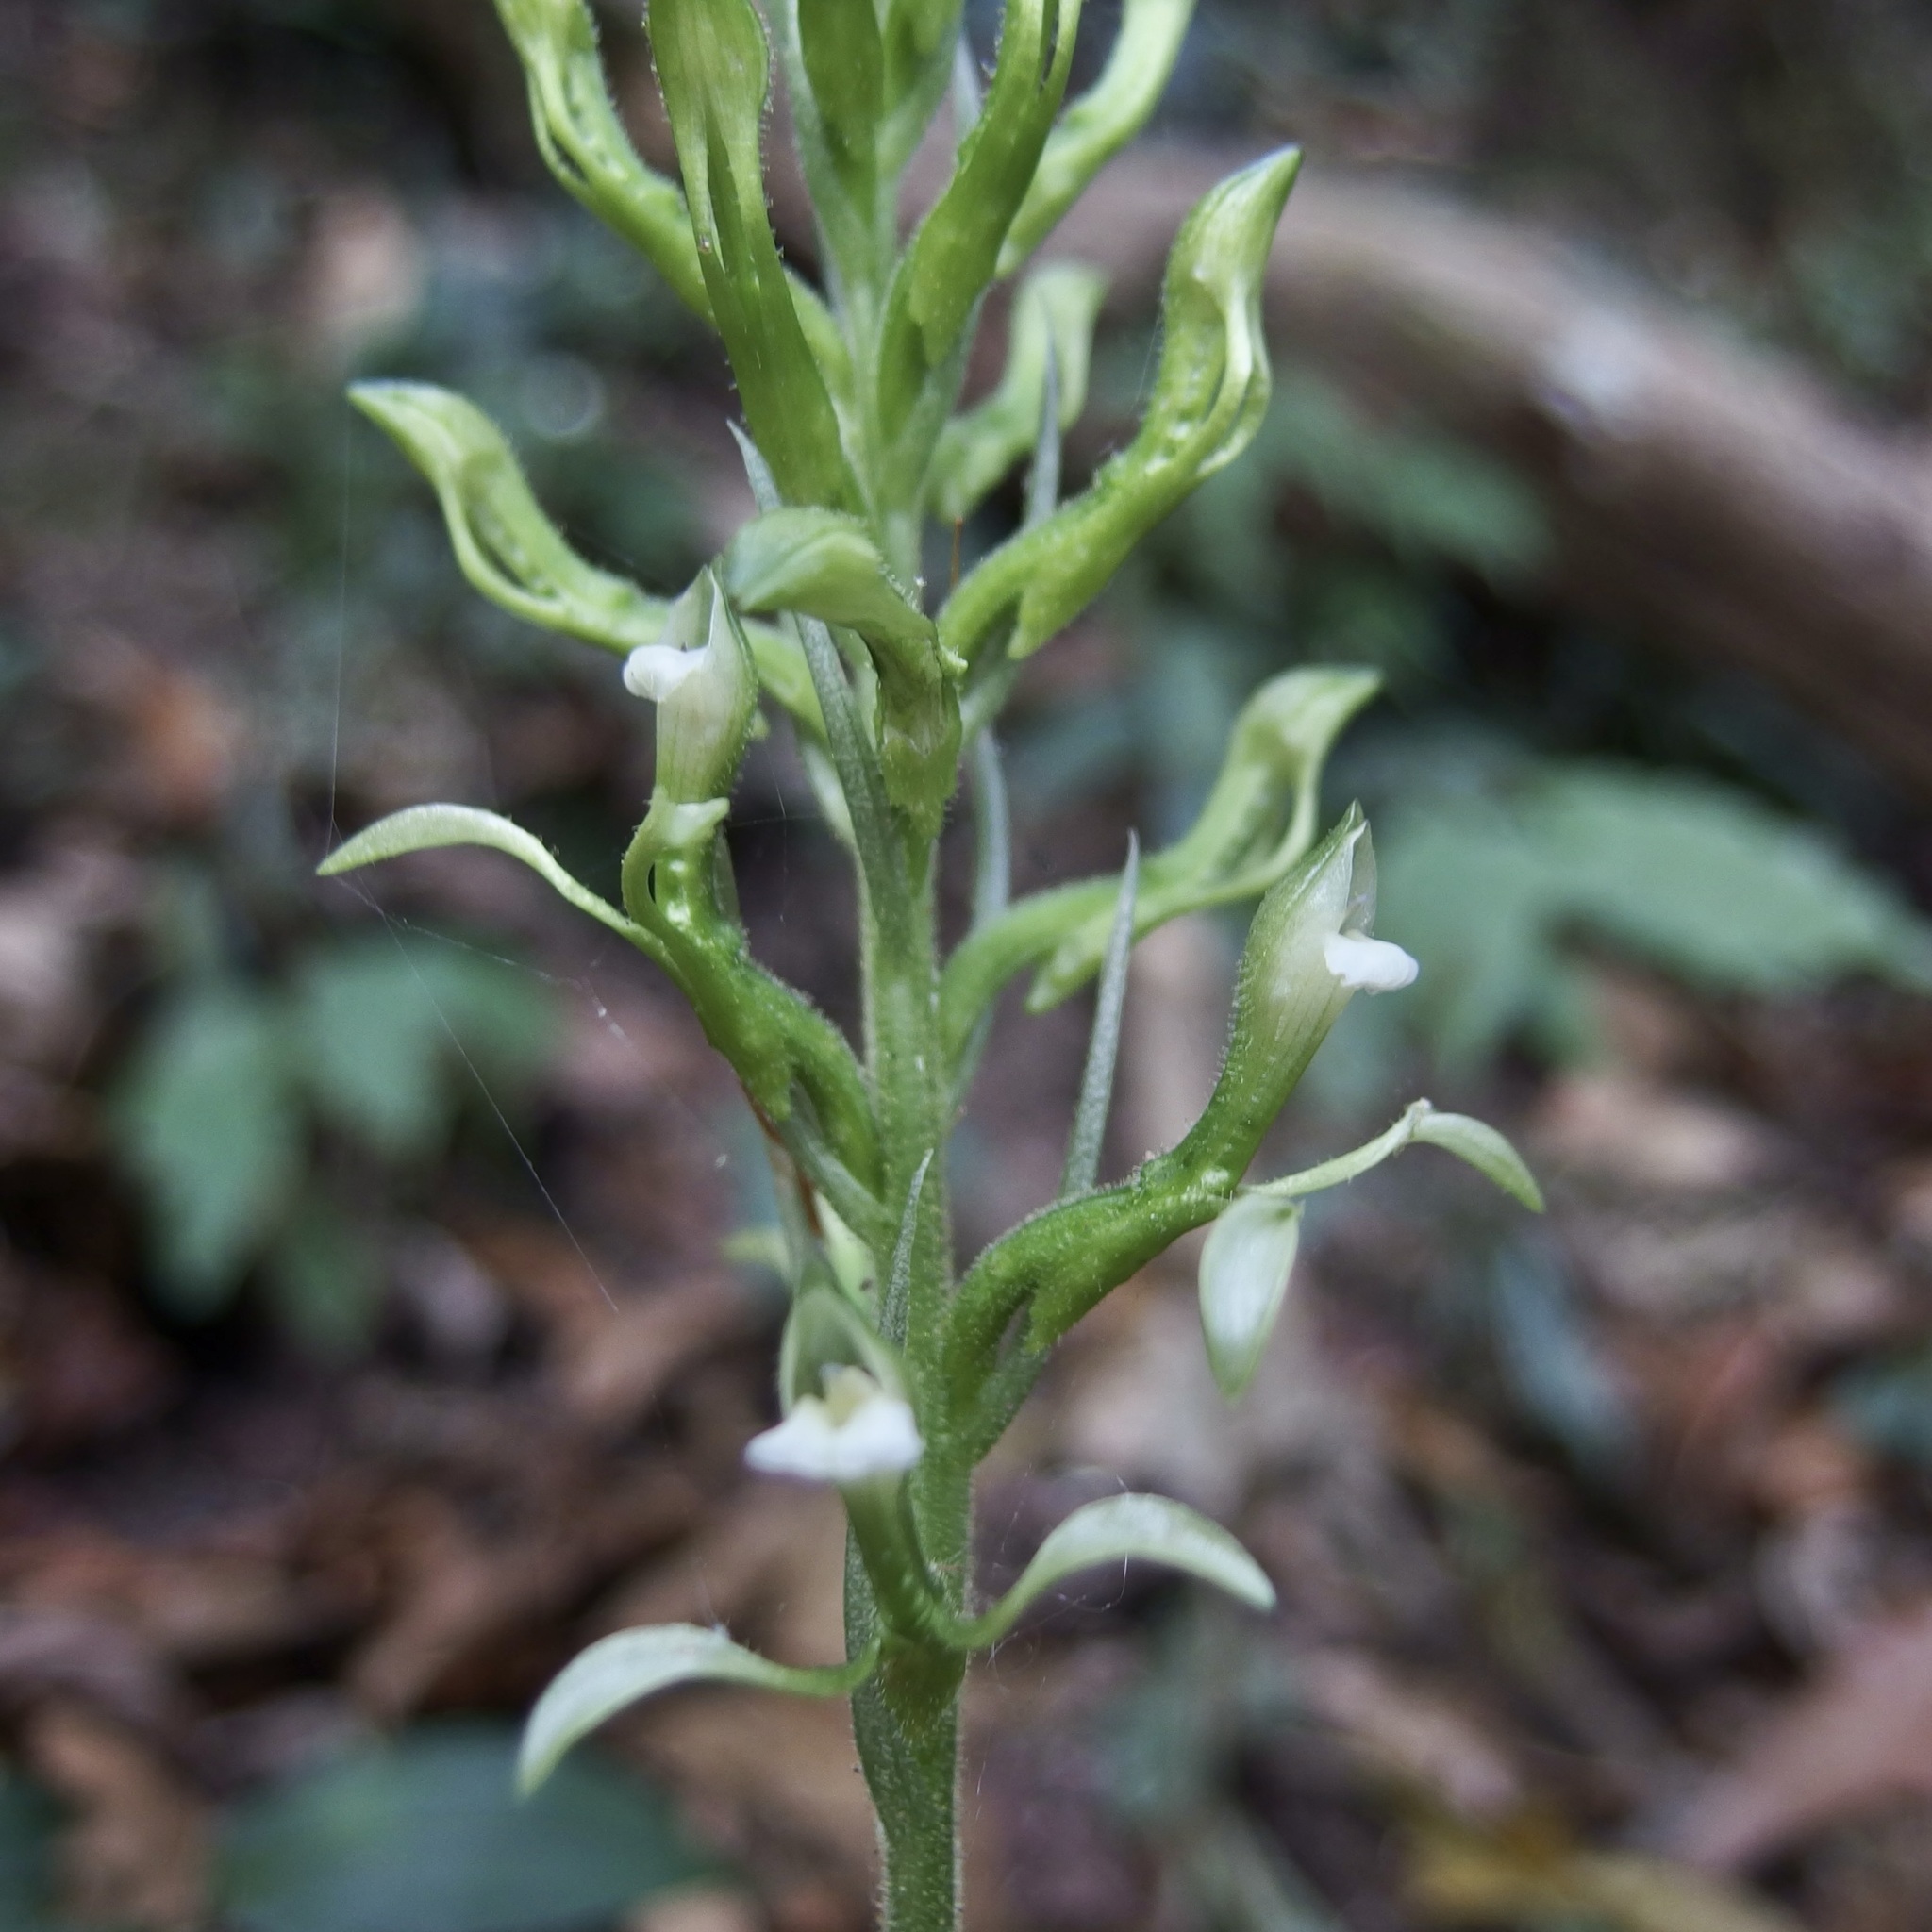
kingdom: Plantae
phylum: Tracheophyta
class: Liliopsida
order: Asparagales
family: Orchidaceae
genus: Pelexia
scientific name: Pelexia funckiana
